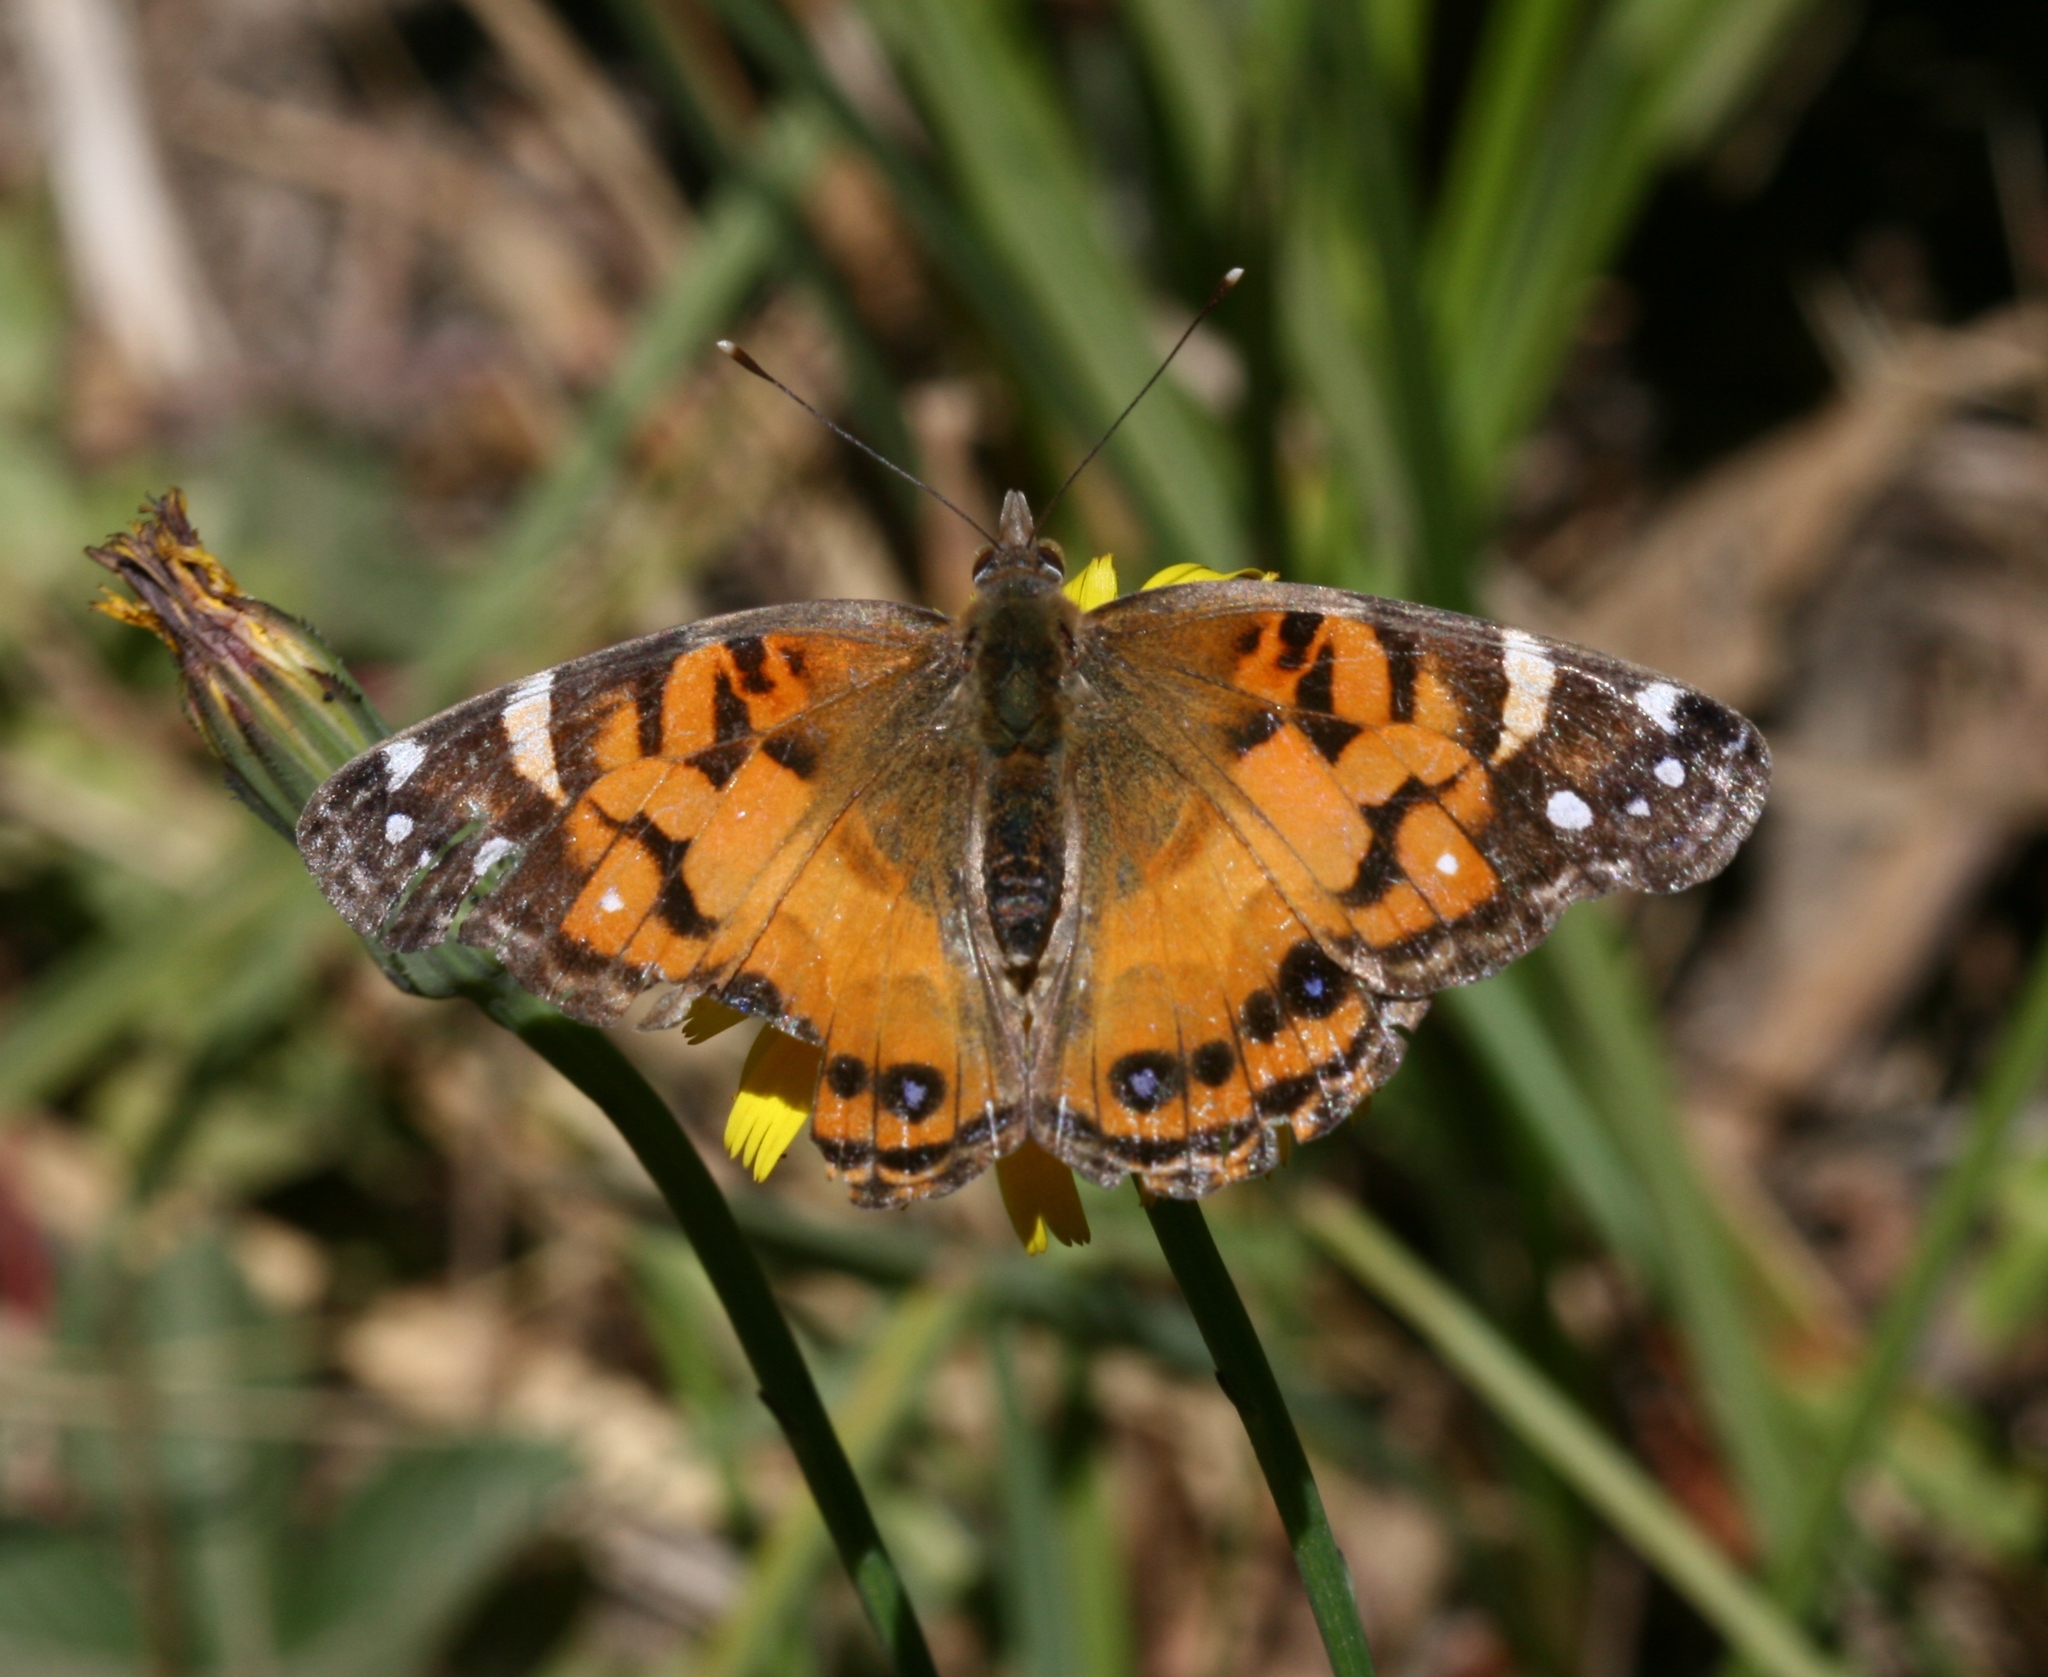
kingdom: Animalia
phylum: Arthropoda
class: Insecta
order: Lepidoptera
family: Nymphalidae
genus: Vanessa
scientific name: Vanessa virginiensis
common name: American lady
